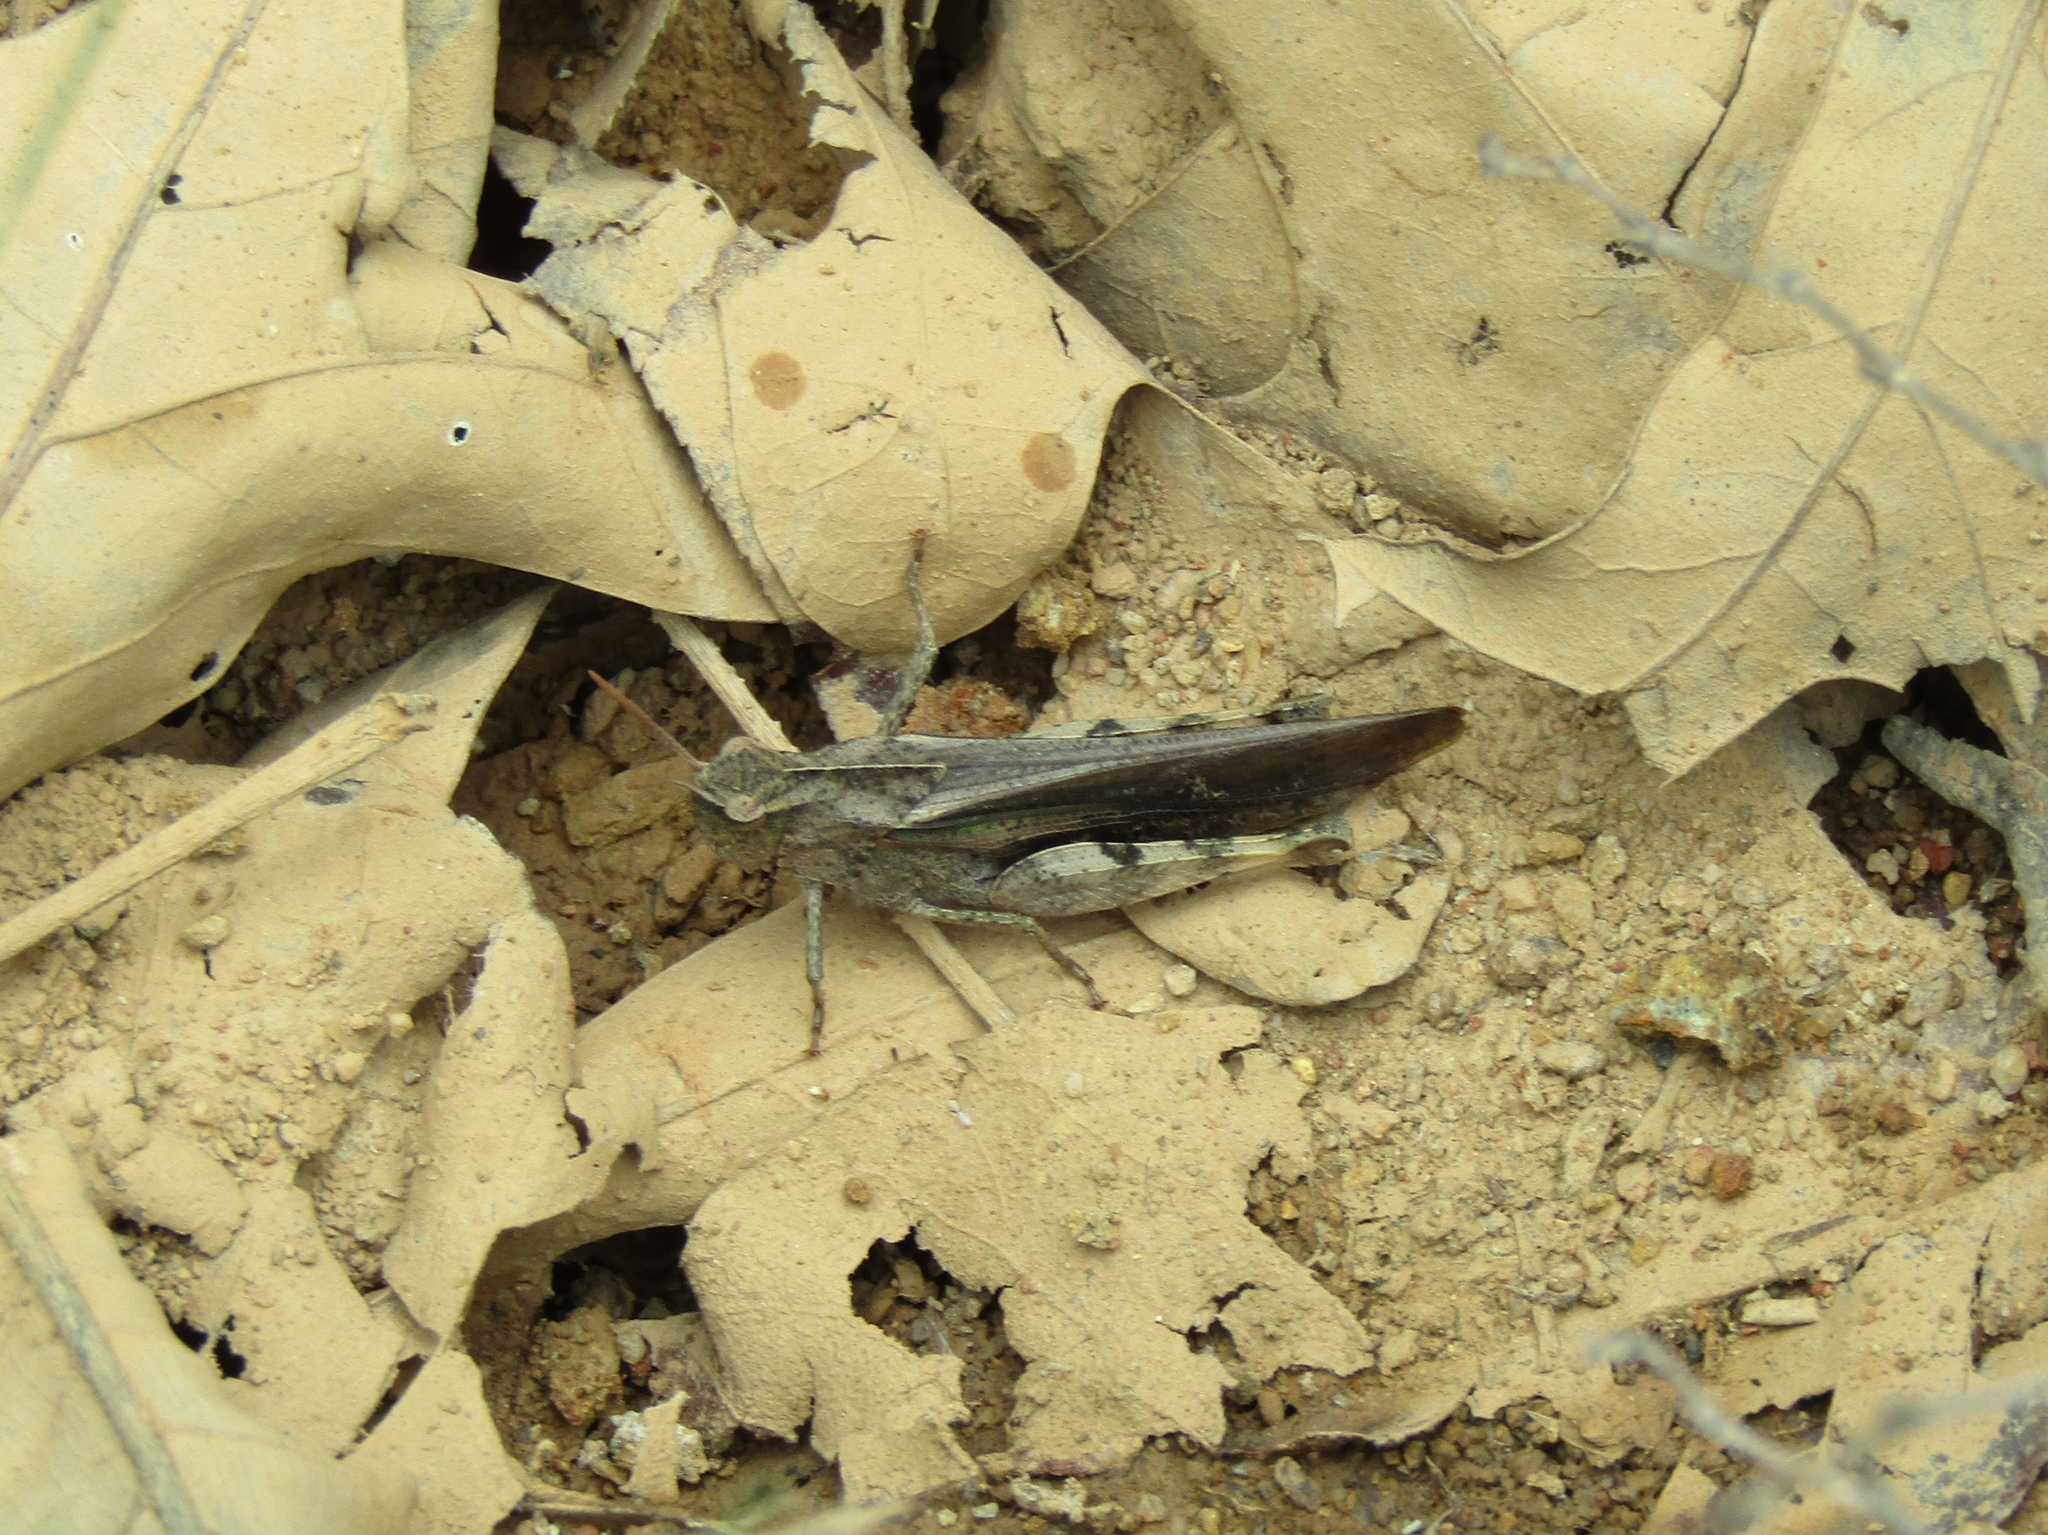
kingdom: Animalia
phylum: Arthropoda
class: Insecta
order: Orthoptera
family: Acrididae
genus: Chortophaga
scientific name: Chortophaga viridifasciata
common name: Green-striped grasshopper
